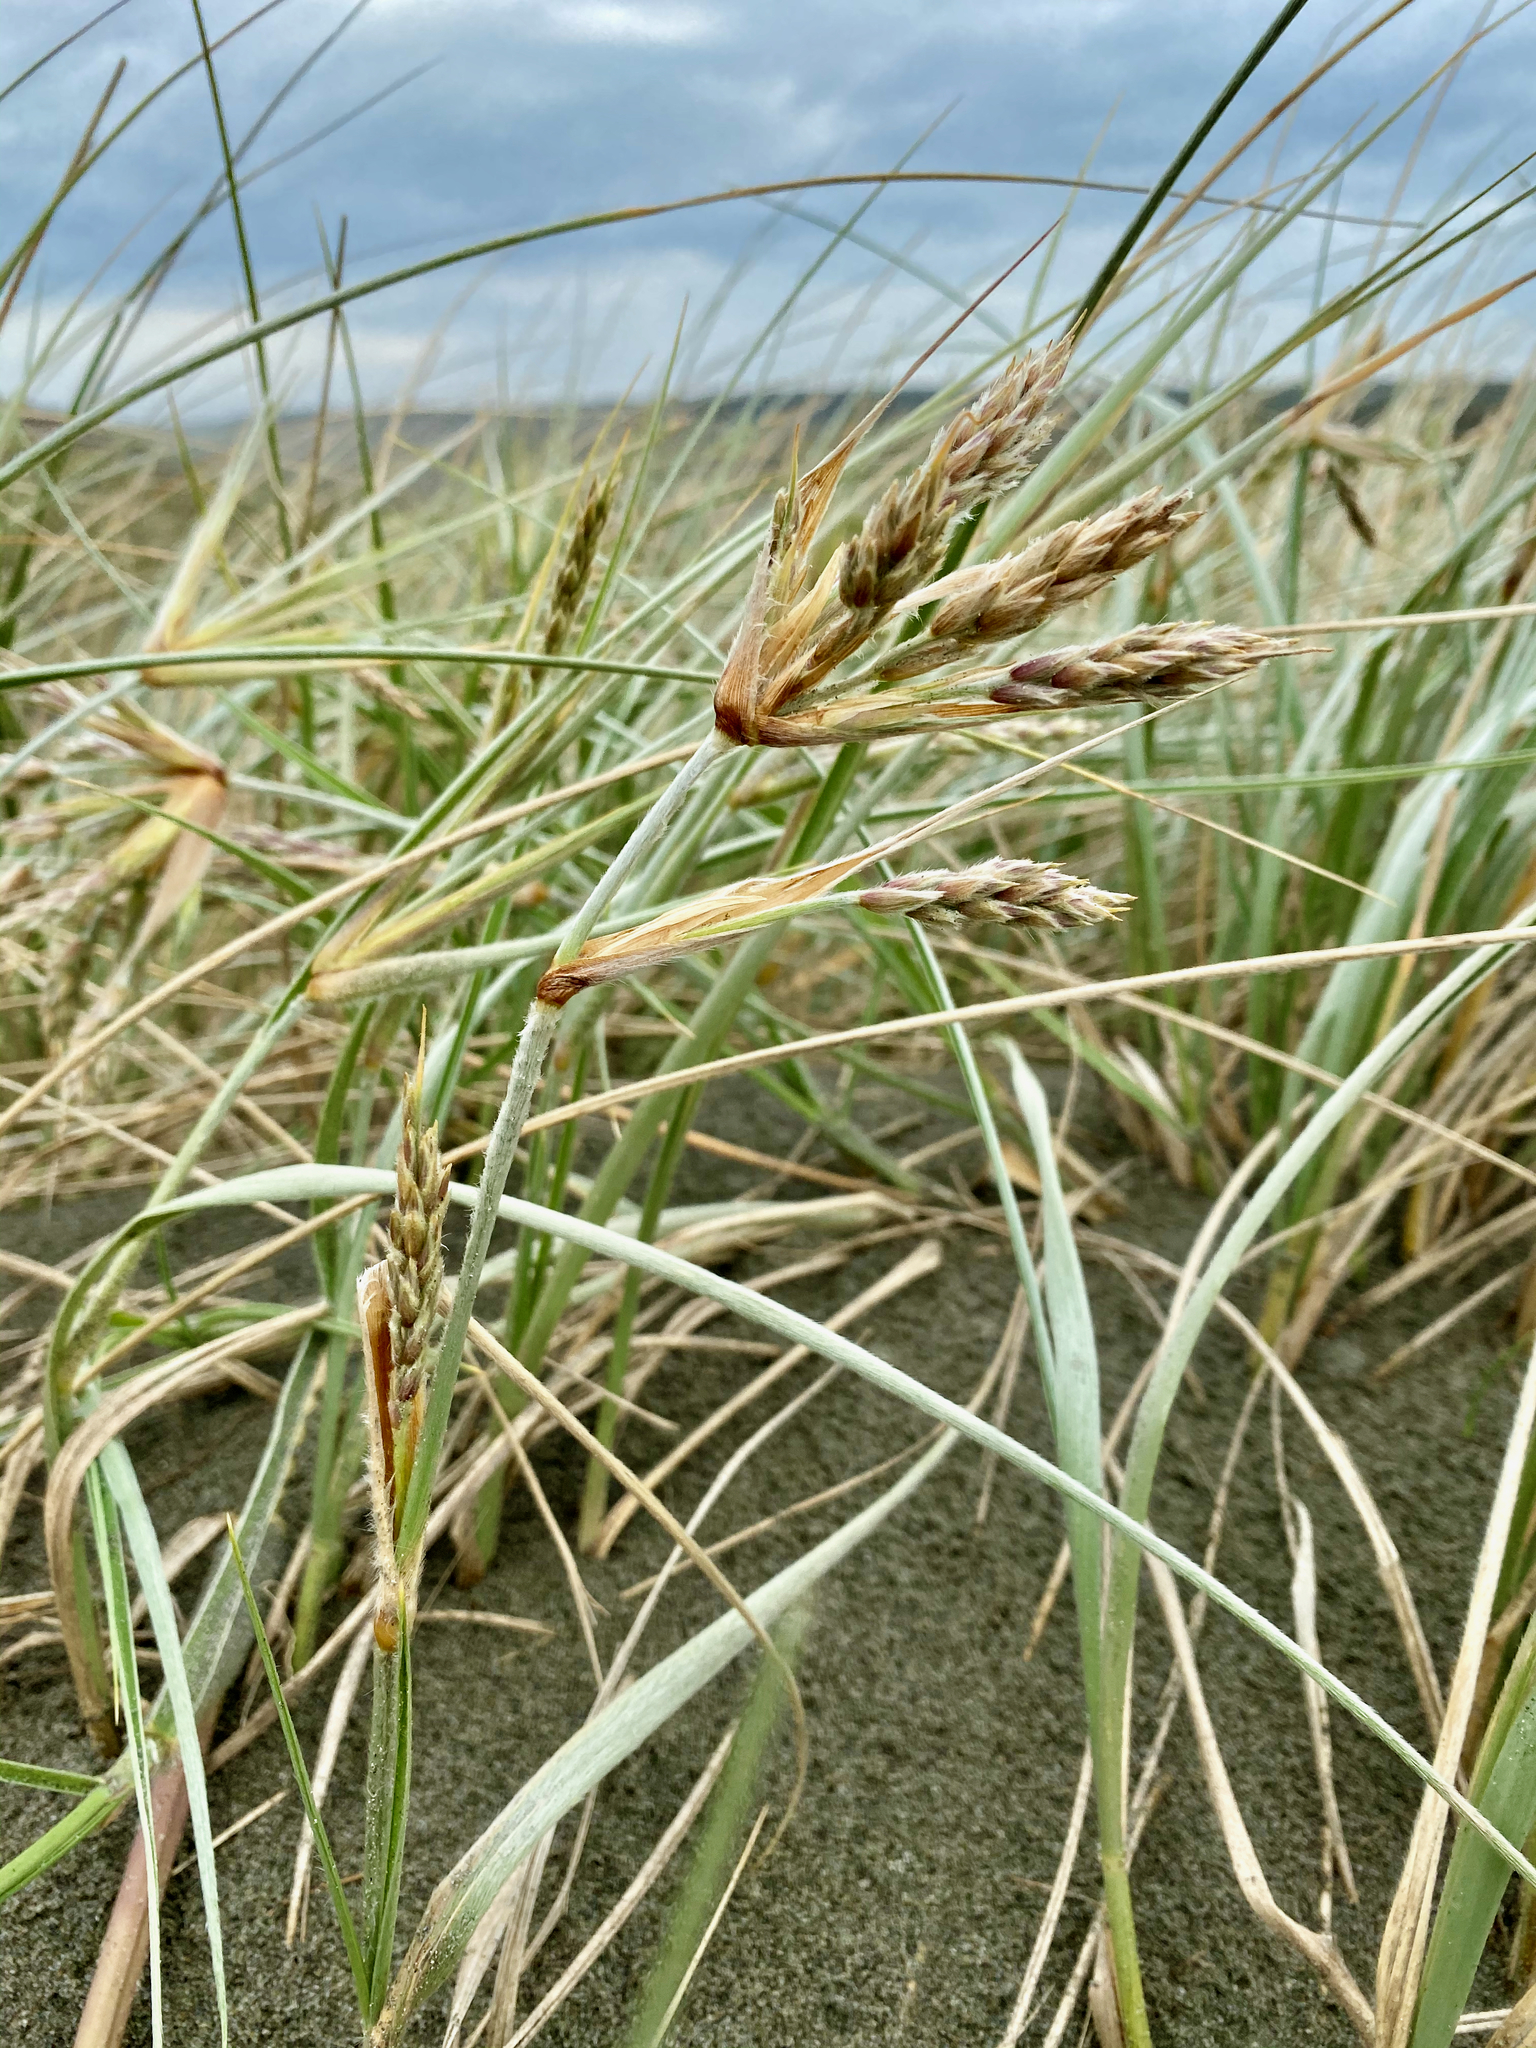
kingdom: Plantae
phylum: Tracheophyta
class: Liliopsida
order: Poales
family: Poaceae
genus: Spinifex
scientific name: Spinifex sericeus
